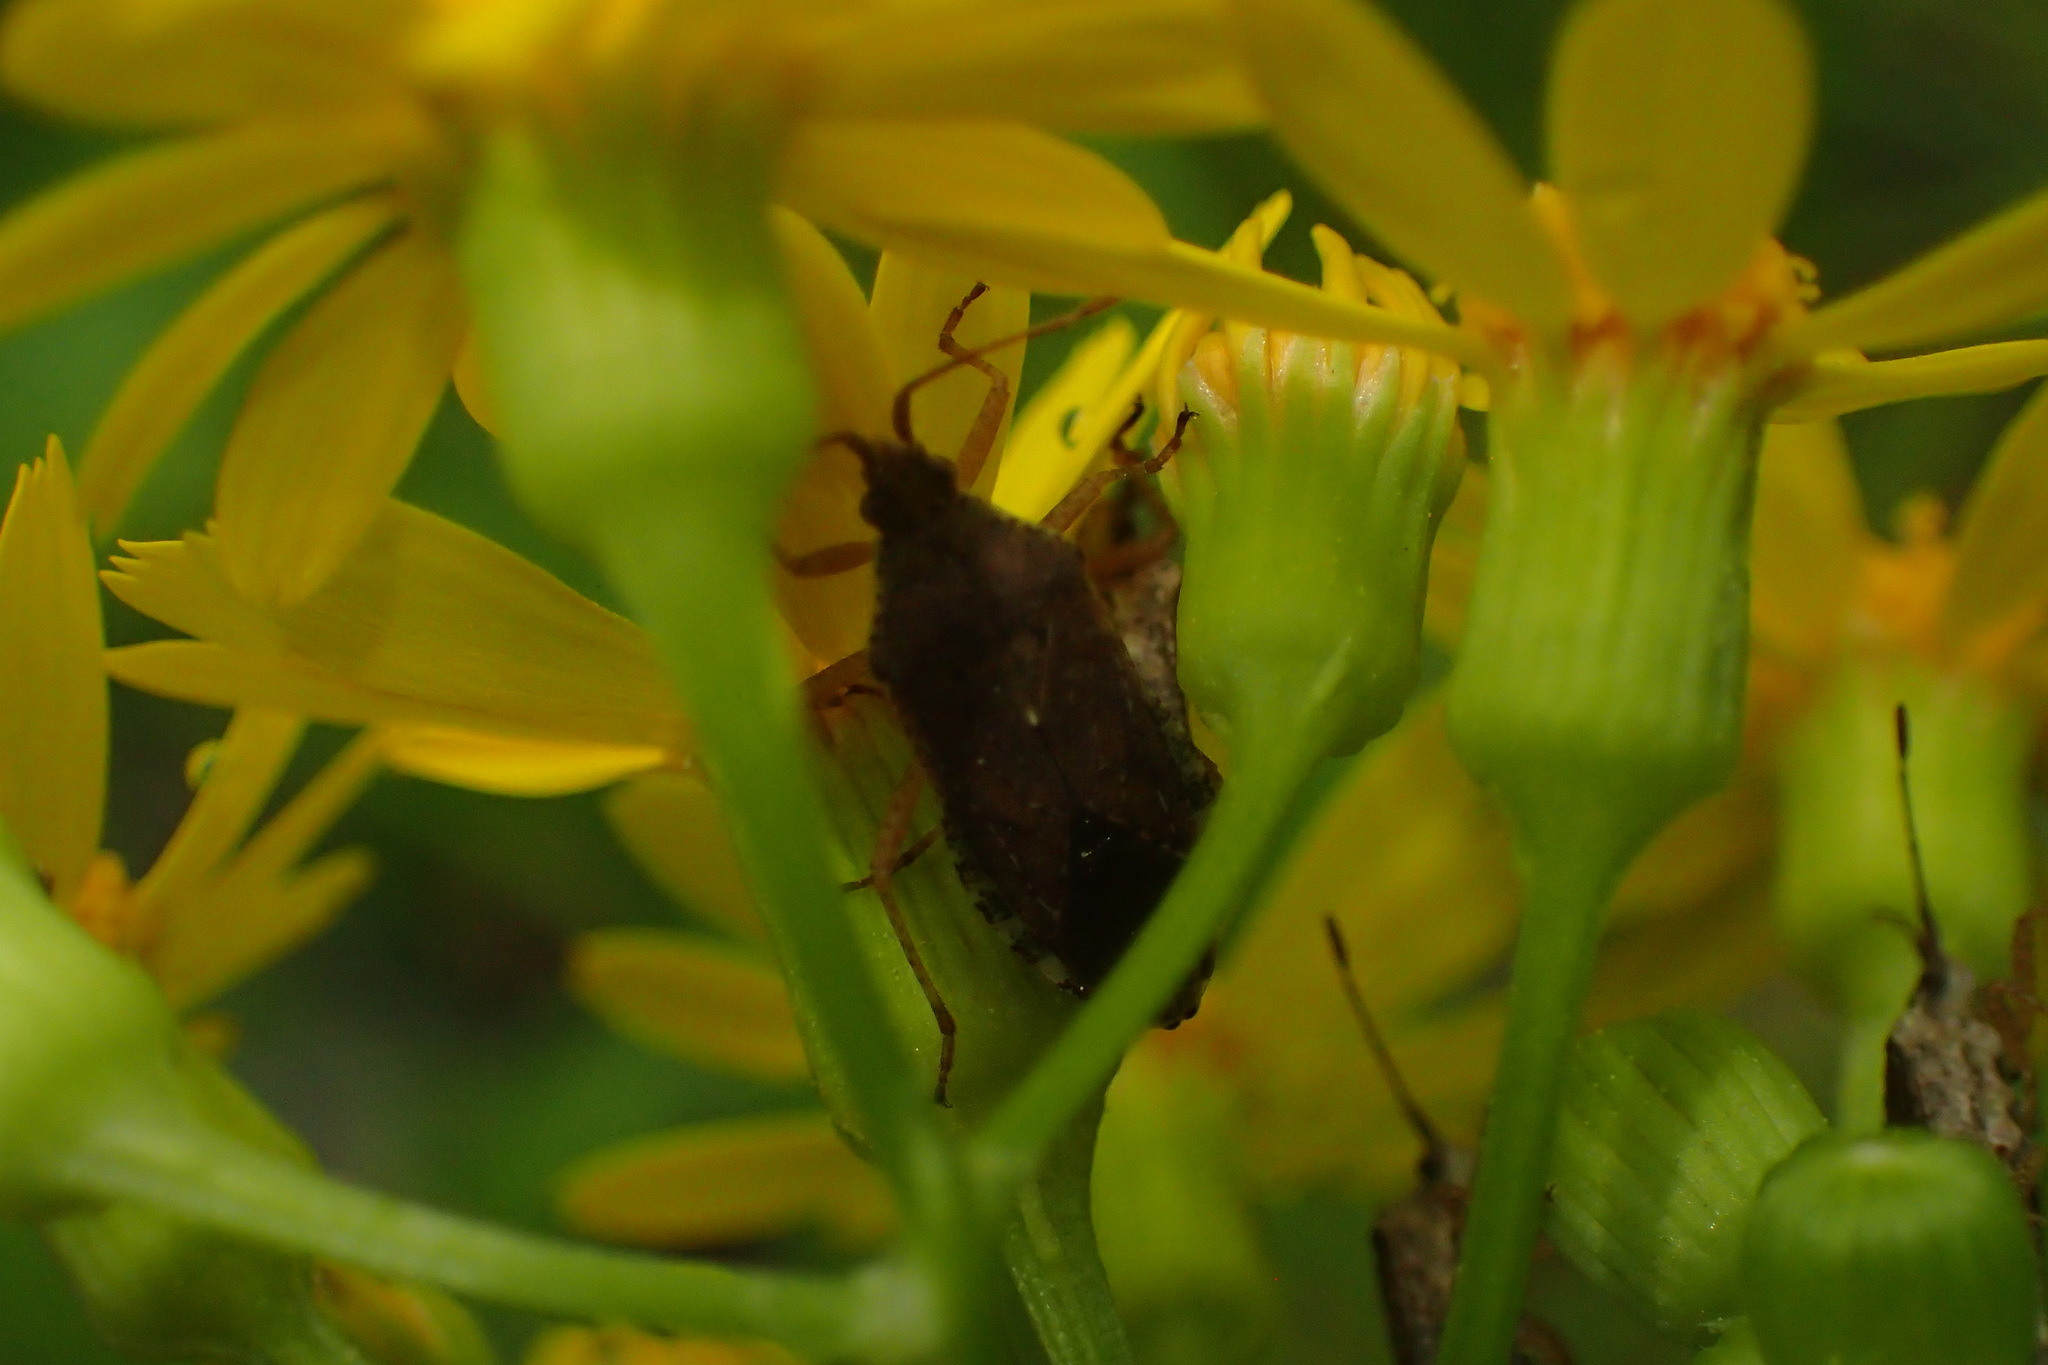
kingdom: Animalia
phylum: Arthropoda
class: Insecta
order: Hemiptera
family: Coreidae
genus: Althos
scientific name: Althos obscurator
